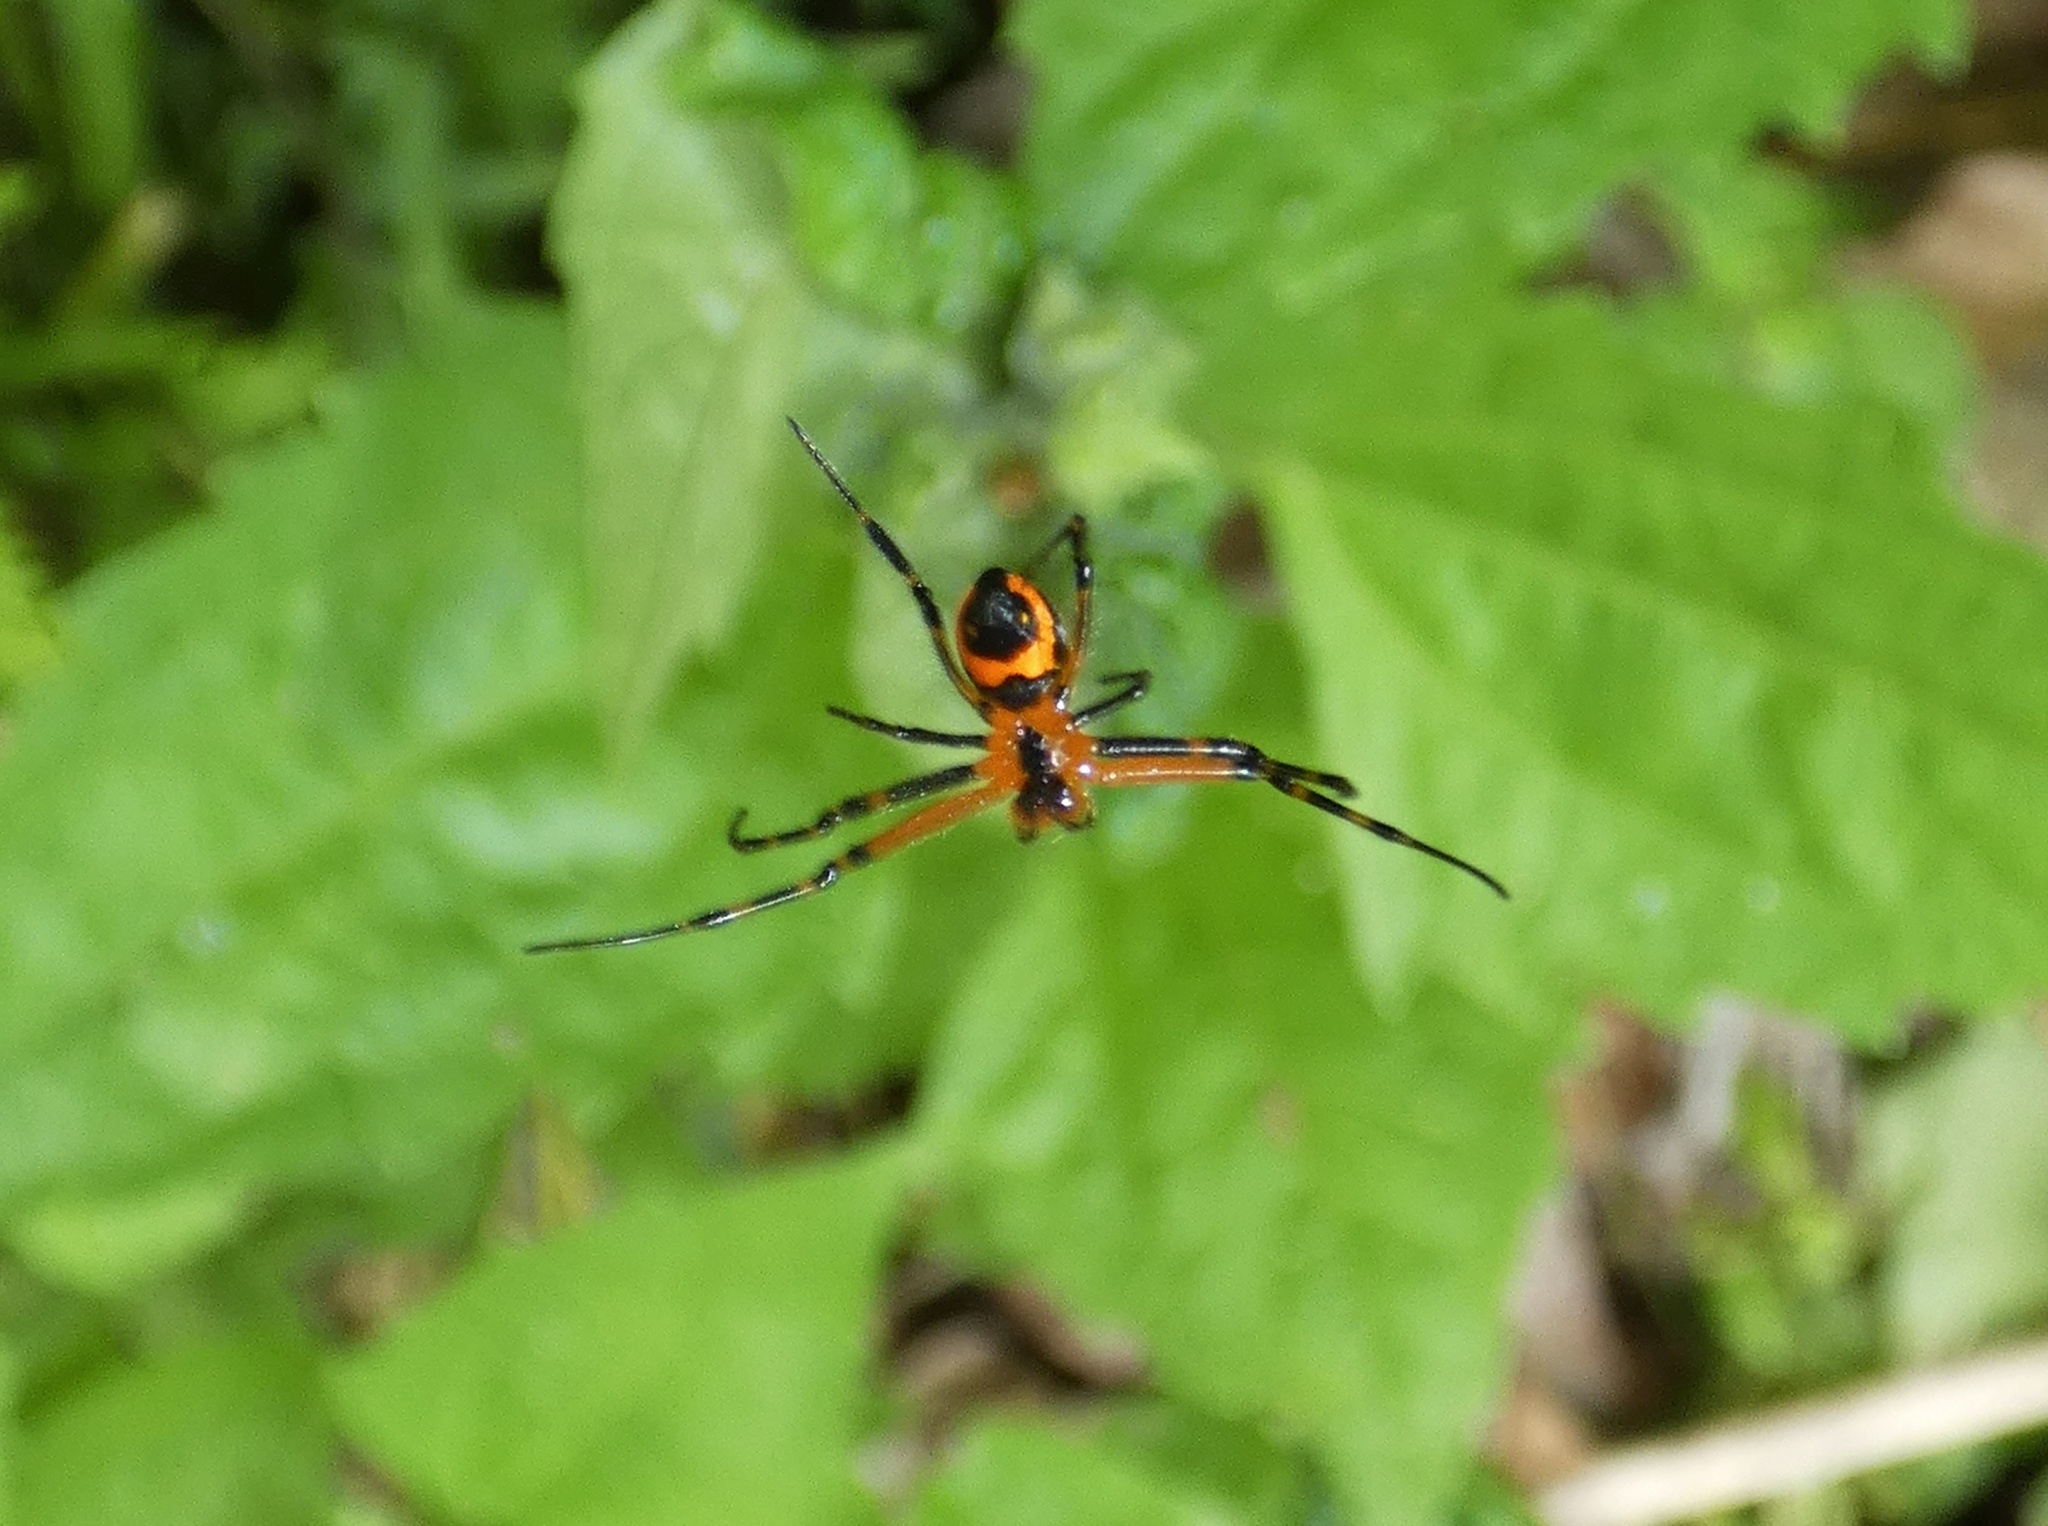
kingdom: Animalia
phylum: Arthropoda
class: Arachnida
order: Araneae
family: Tetragnathidae
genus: Leucauge
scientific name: Leucauge fastigata
